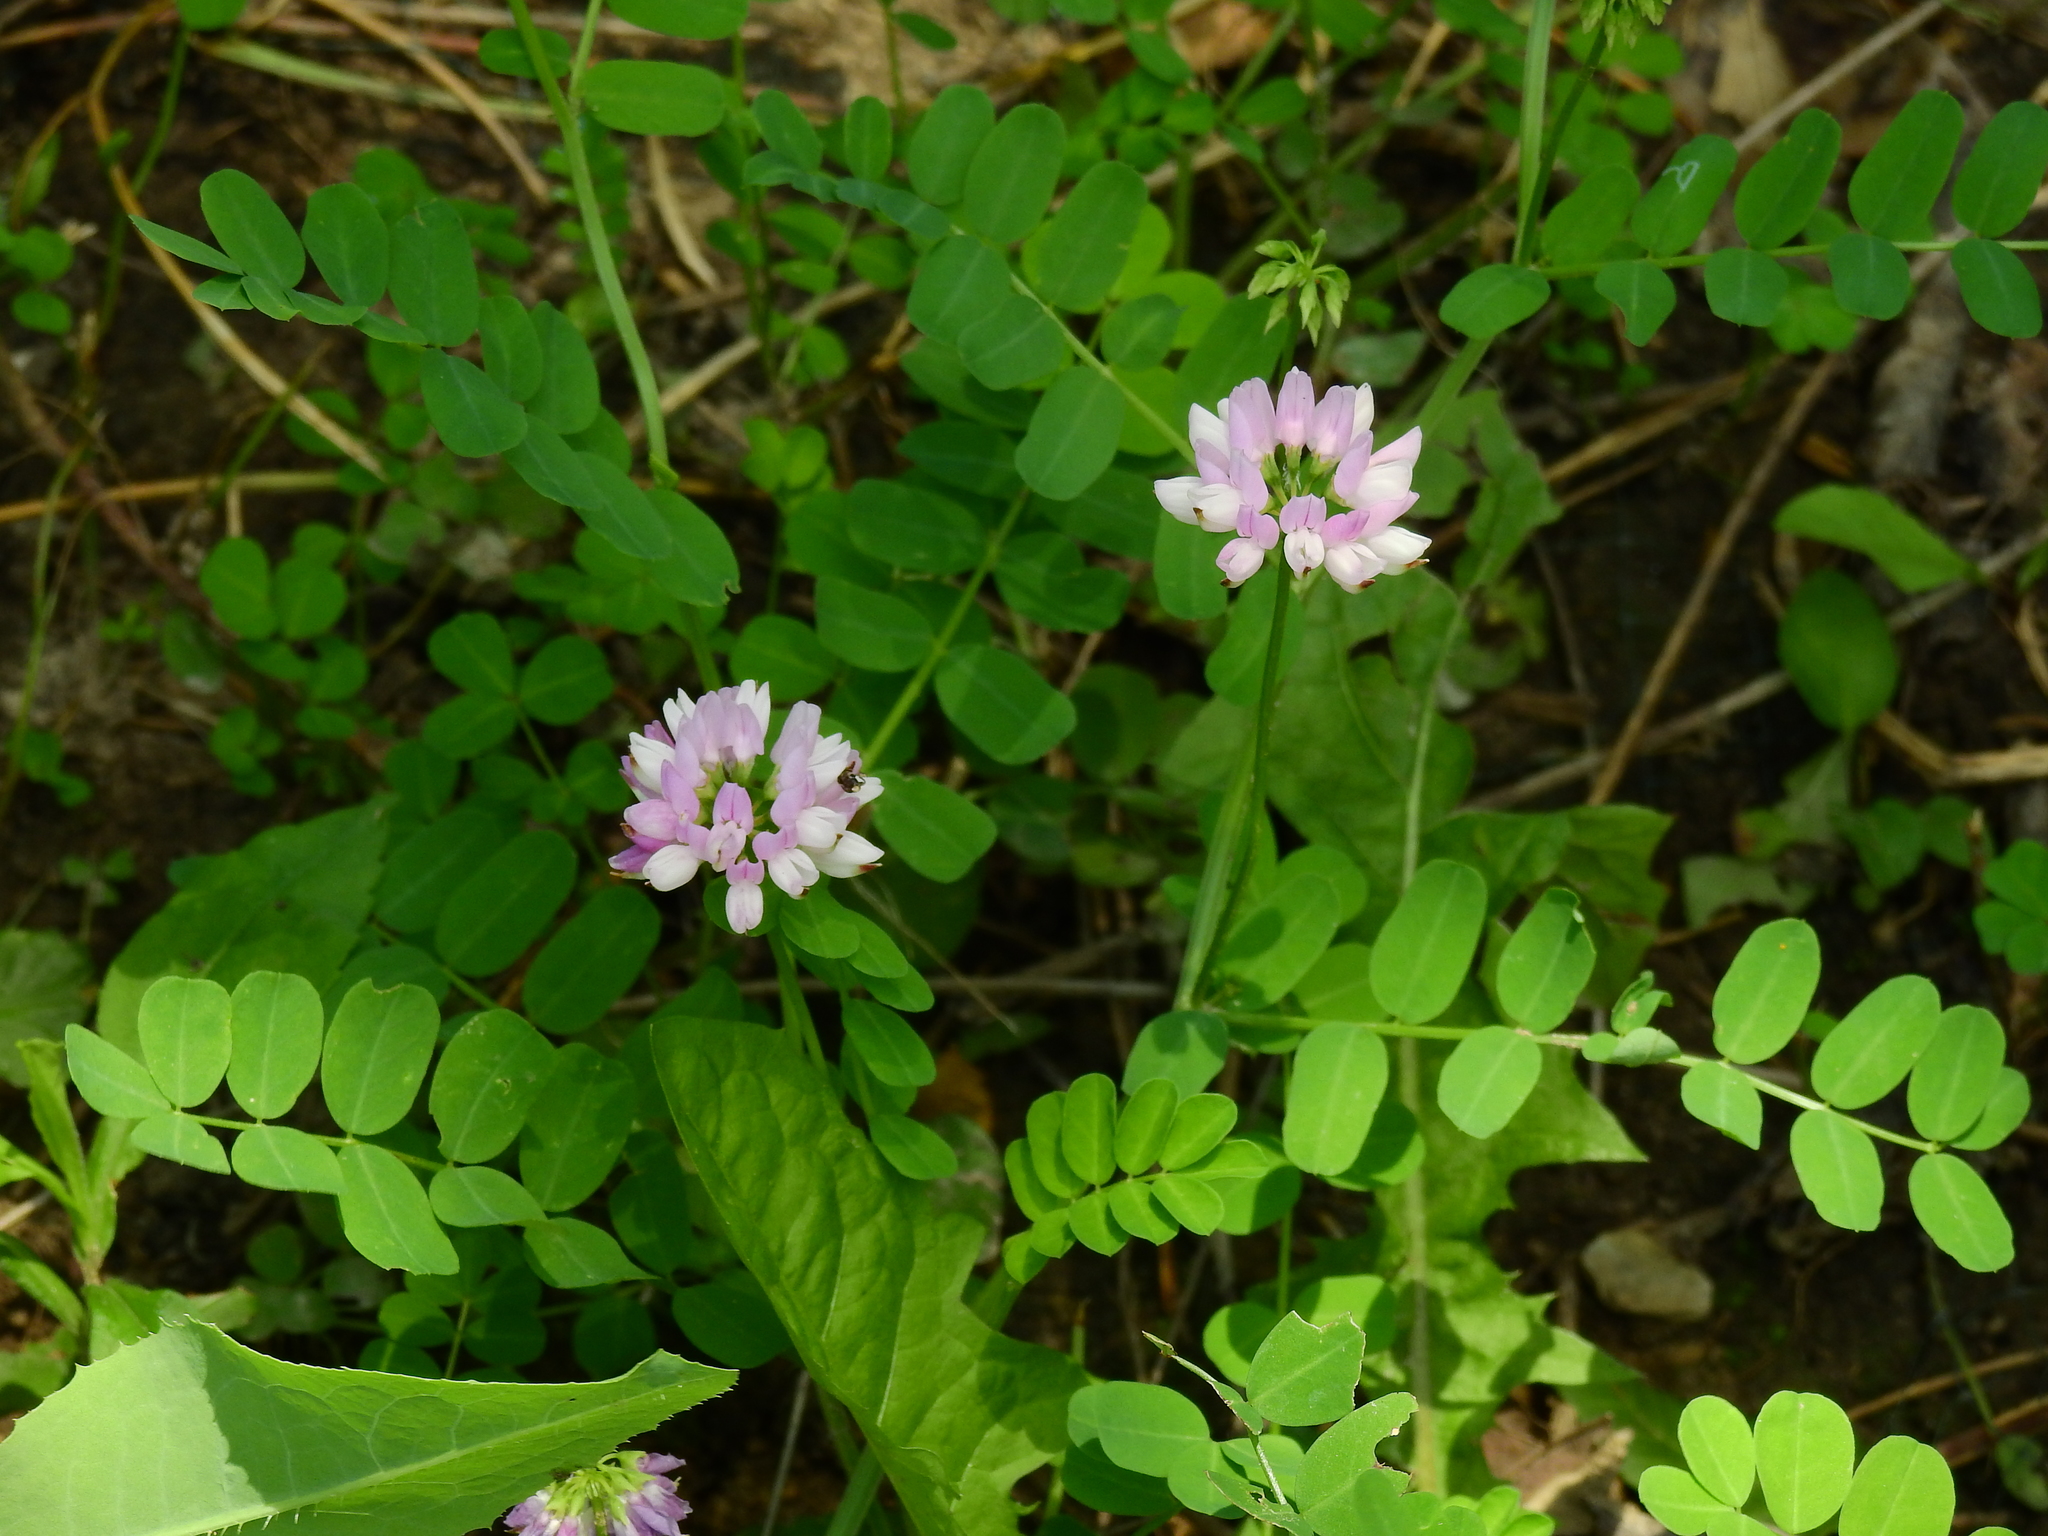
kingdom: Plantae
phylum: Tracheophyta
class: Magnoliopsida
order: Fabales
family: Fabaceae
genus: Coronilla
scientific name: Coronilla varia
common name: Crownvetch
